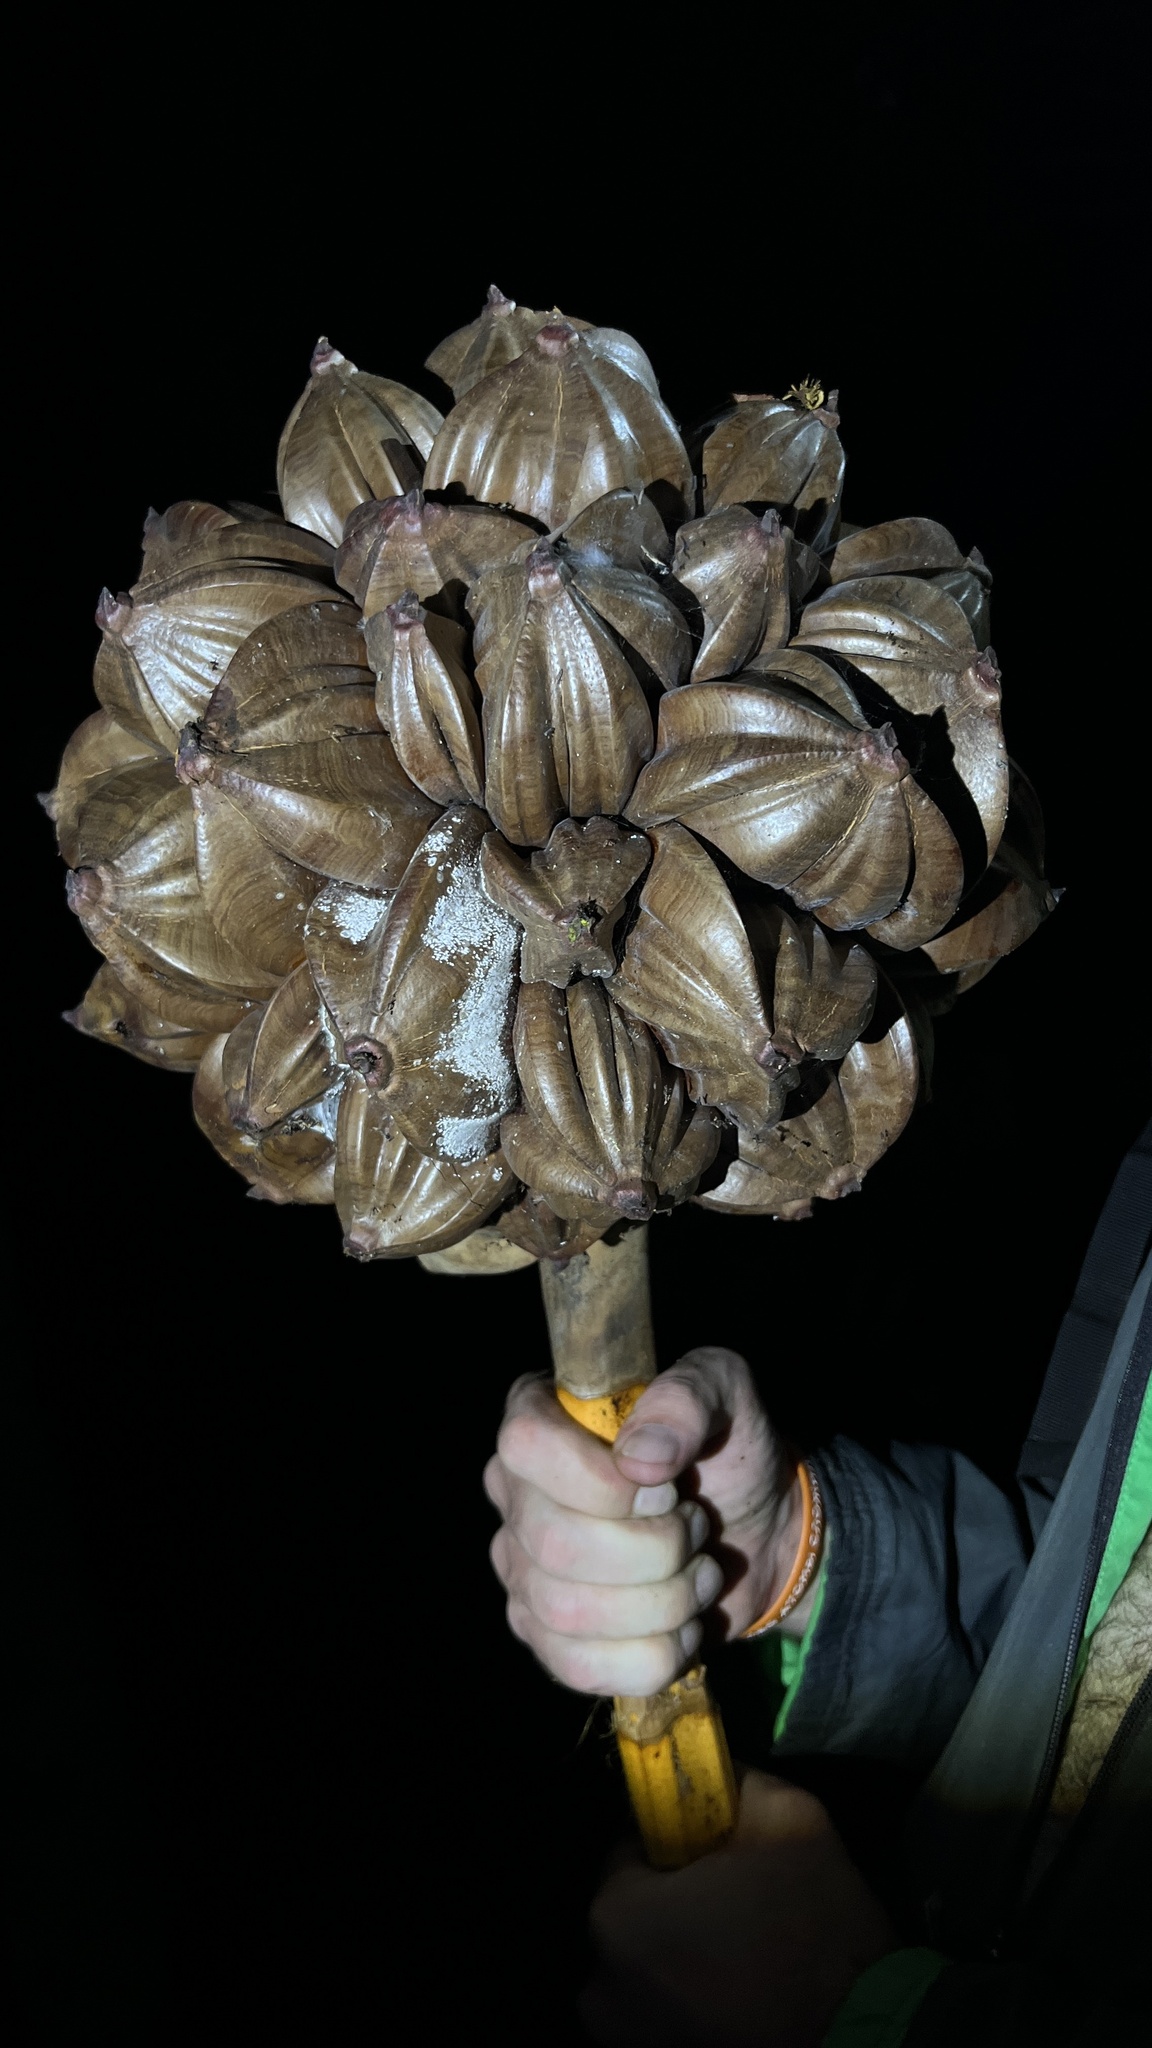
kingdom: Plantae
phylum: Tracheophyta
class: Liliopsida
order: Arecales
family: Arecaceae
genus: Nypa
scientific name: Nypa fruticans
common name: Mangrove palm
